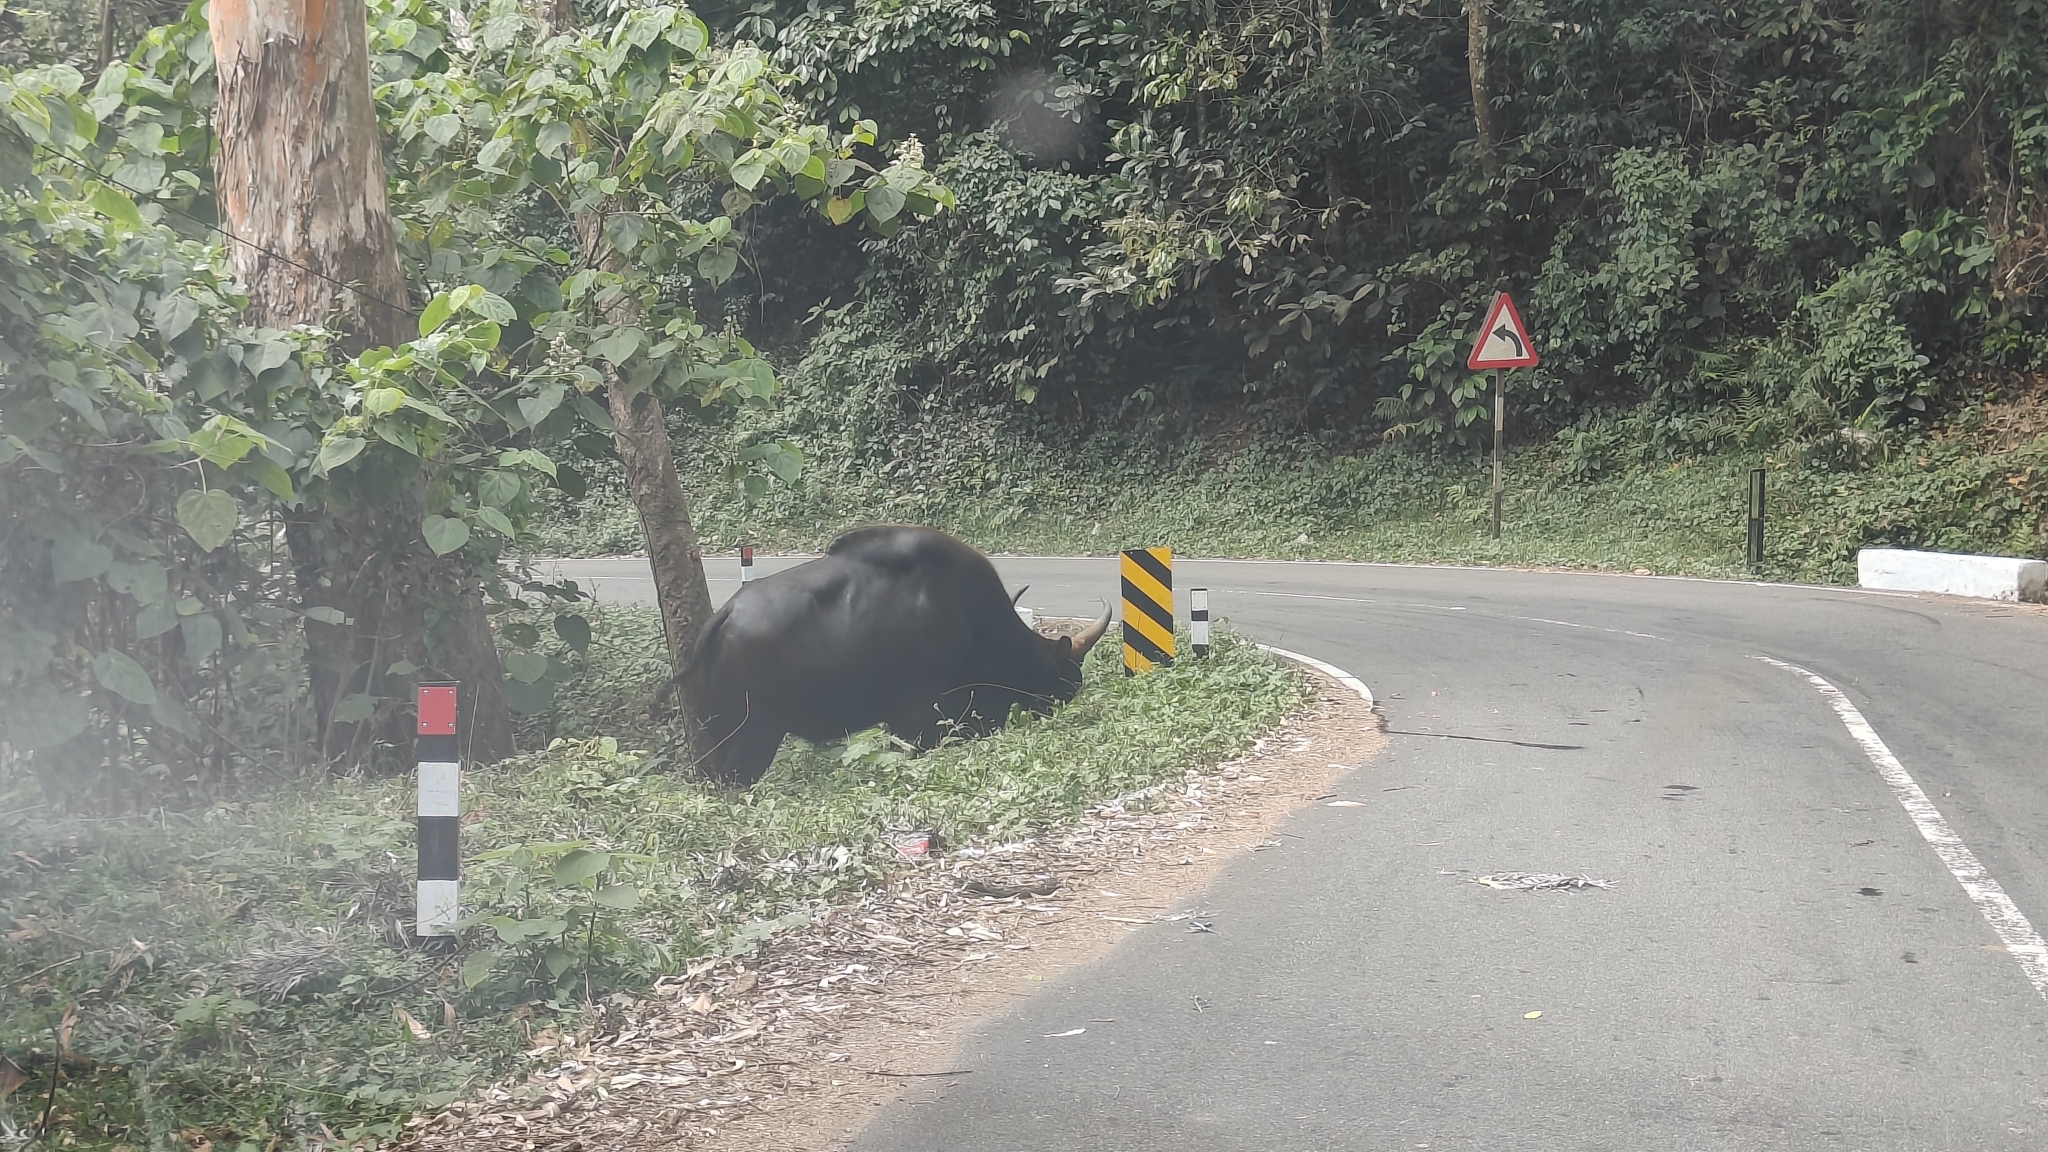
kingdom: Animalia
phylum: Chordata
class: Mammalia
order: Artiodactyla
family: Bovidae
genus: Bos
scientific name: Bos frontalis
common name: Gaur
